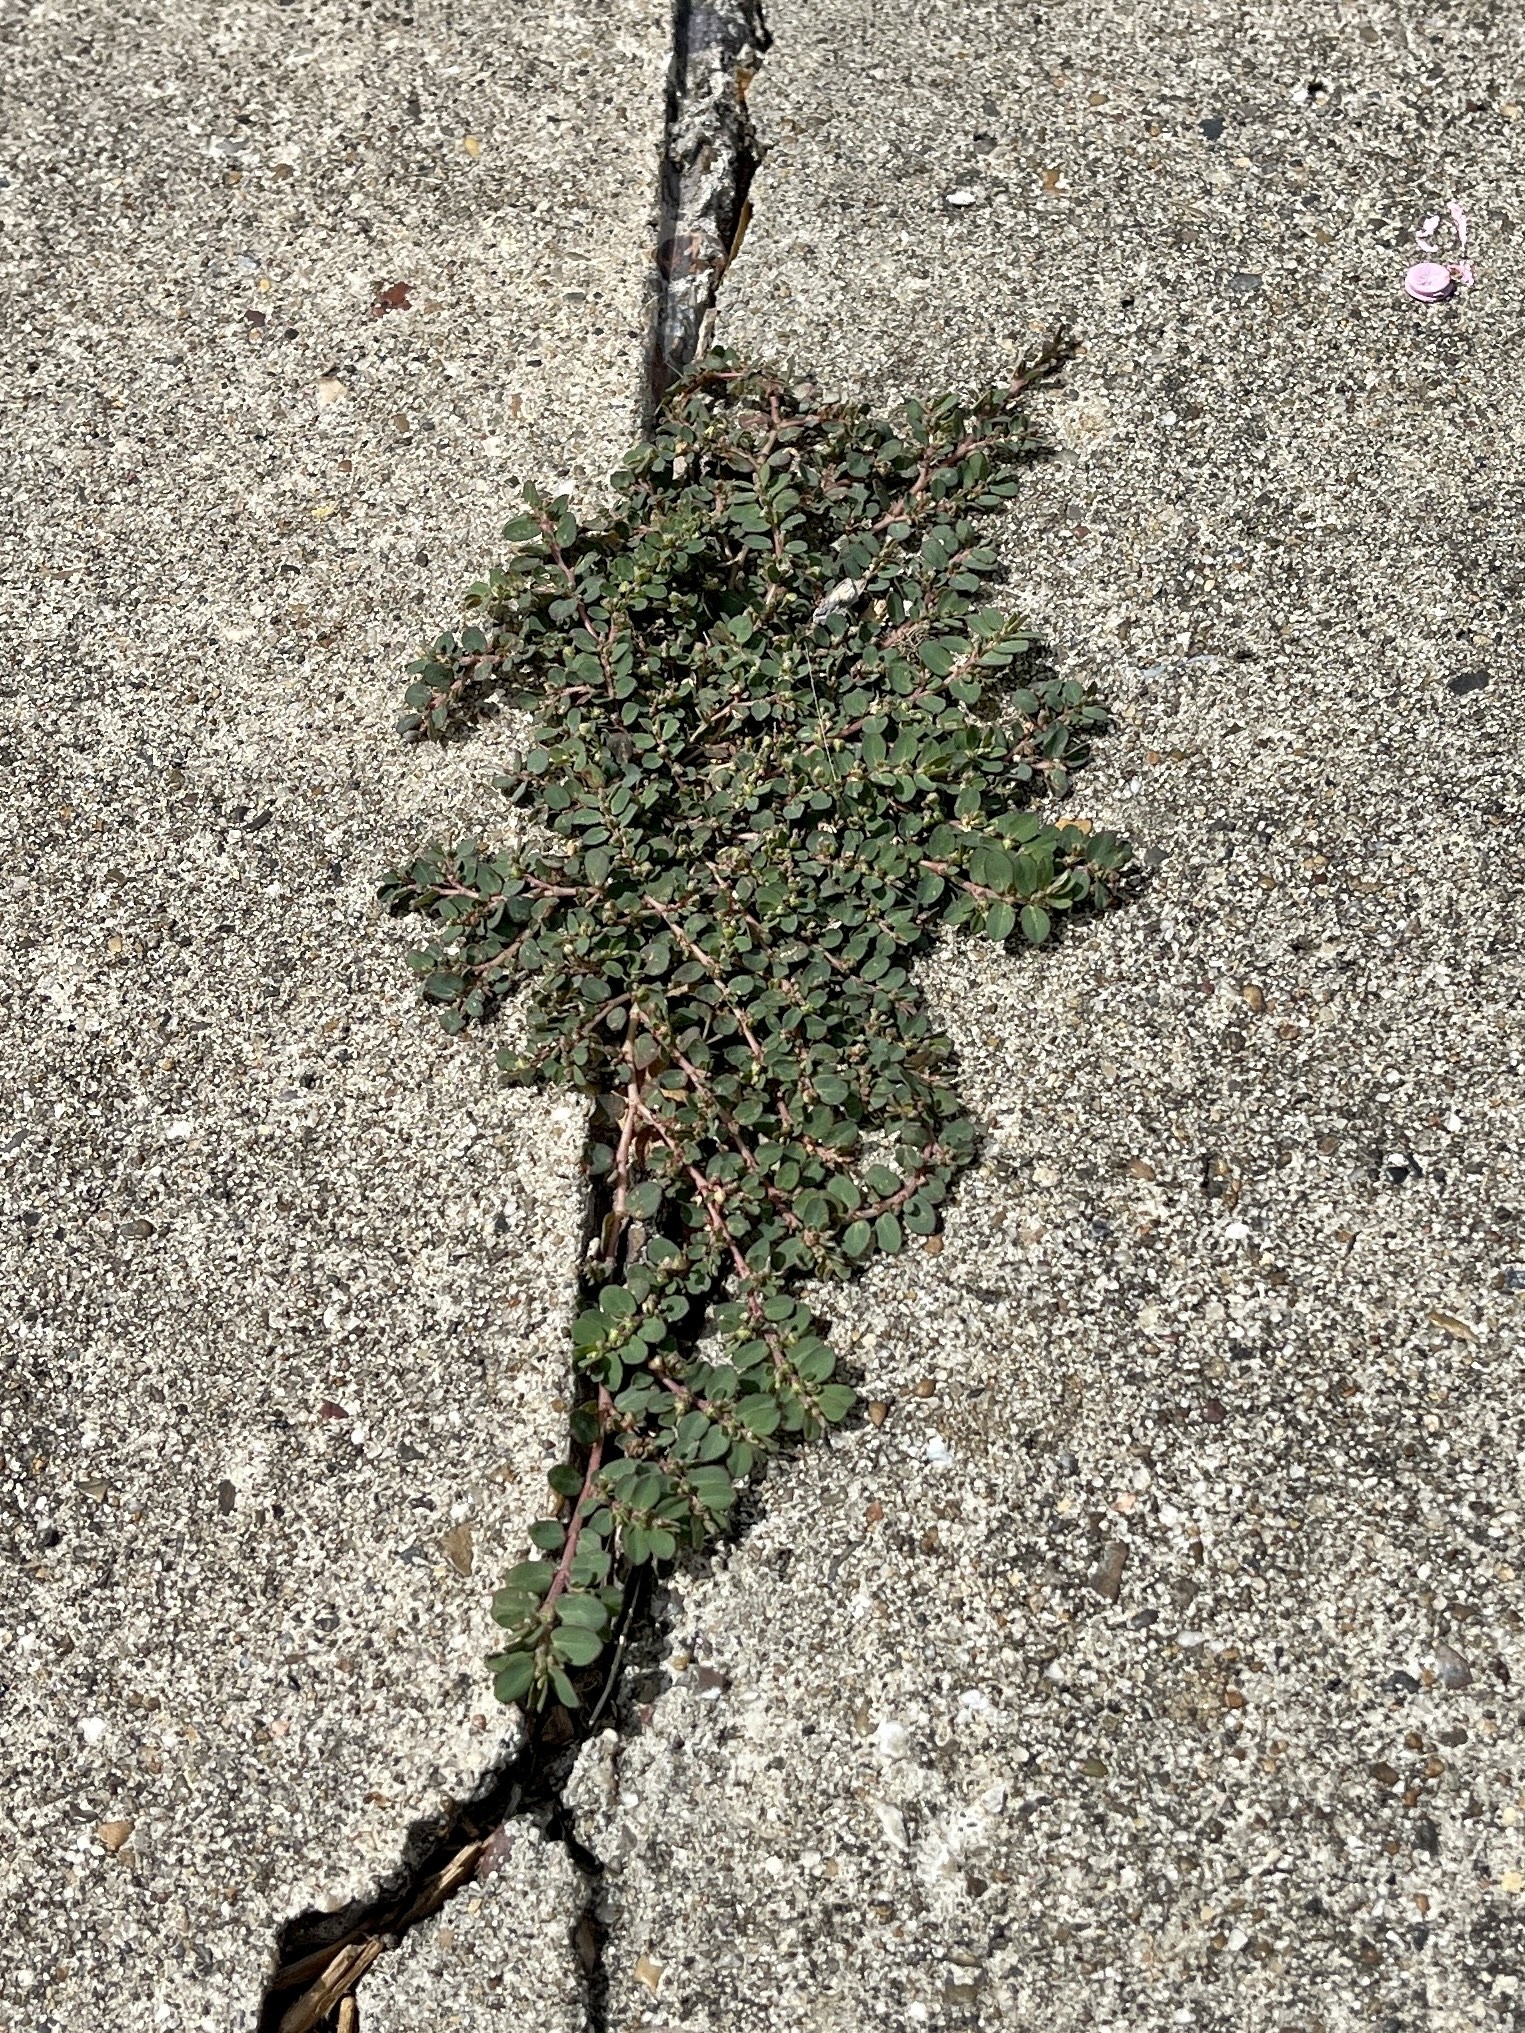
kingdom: Plantae
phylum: Tracheophyta
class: Magnoliopsida
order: Malpighiales
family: Euphorbiaceae
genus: Euphorbia
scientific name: Euphorbia prostrata
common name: Prostrate sandmat
